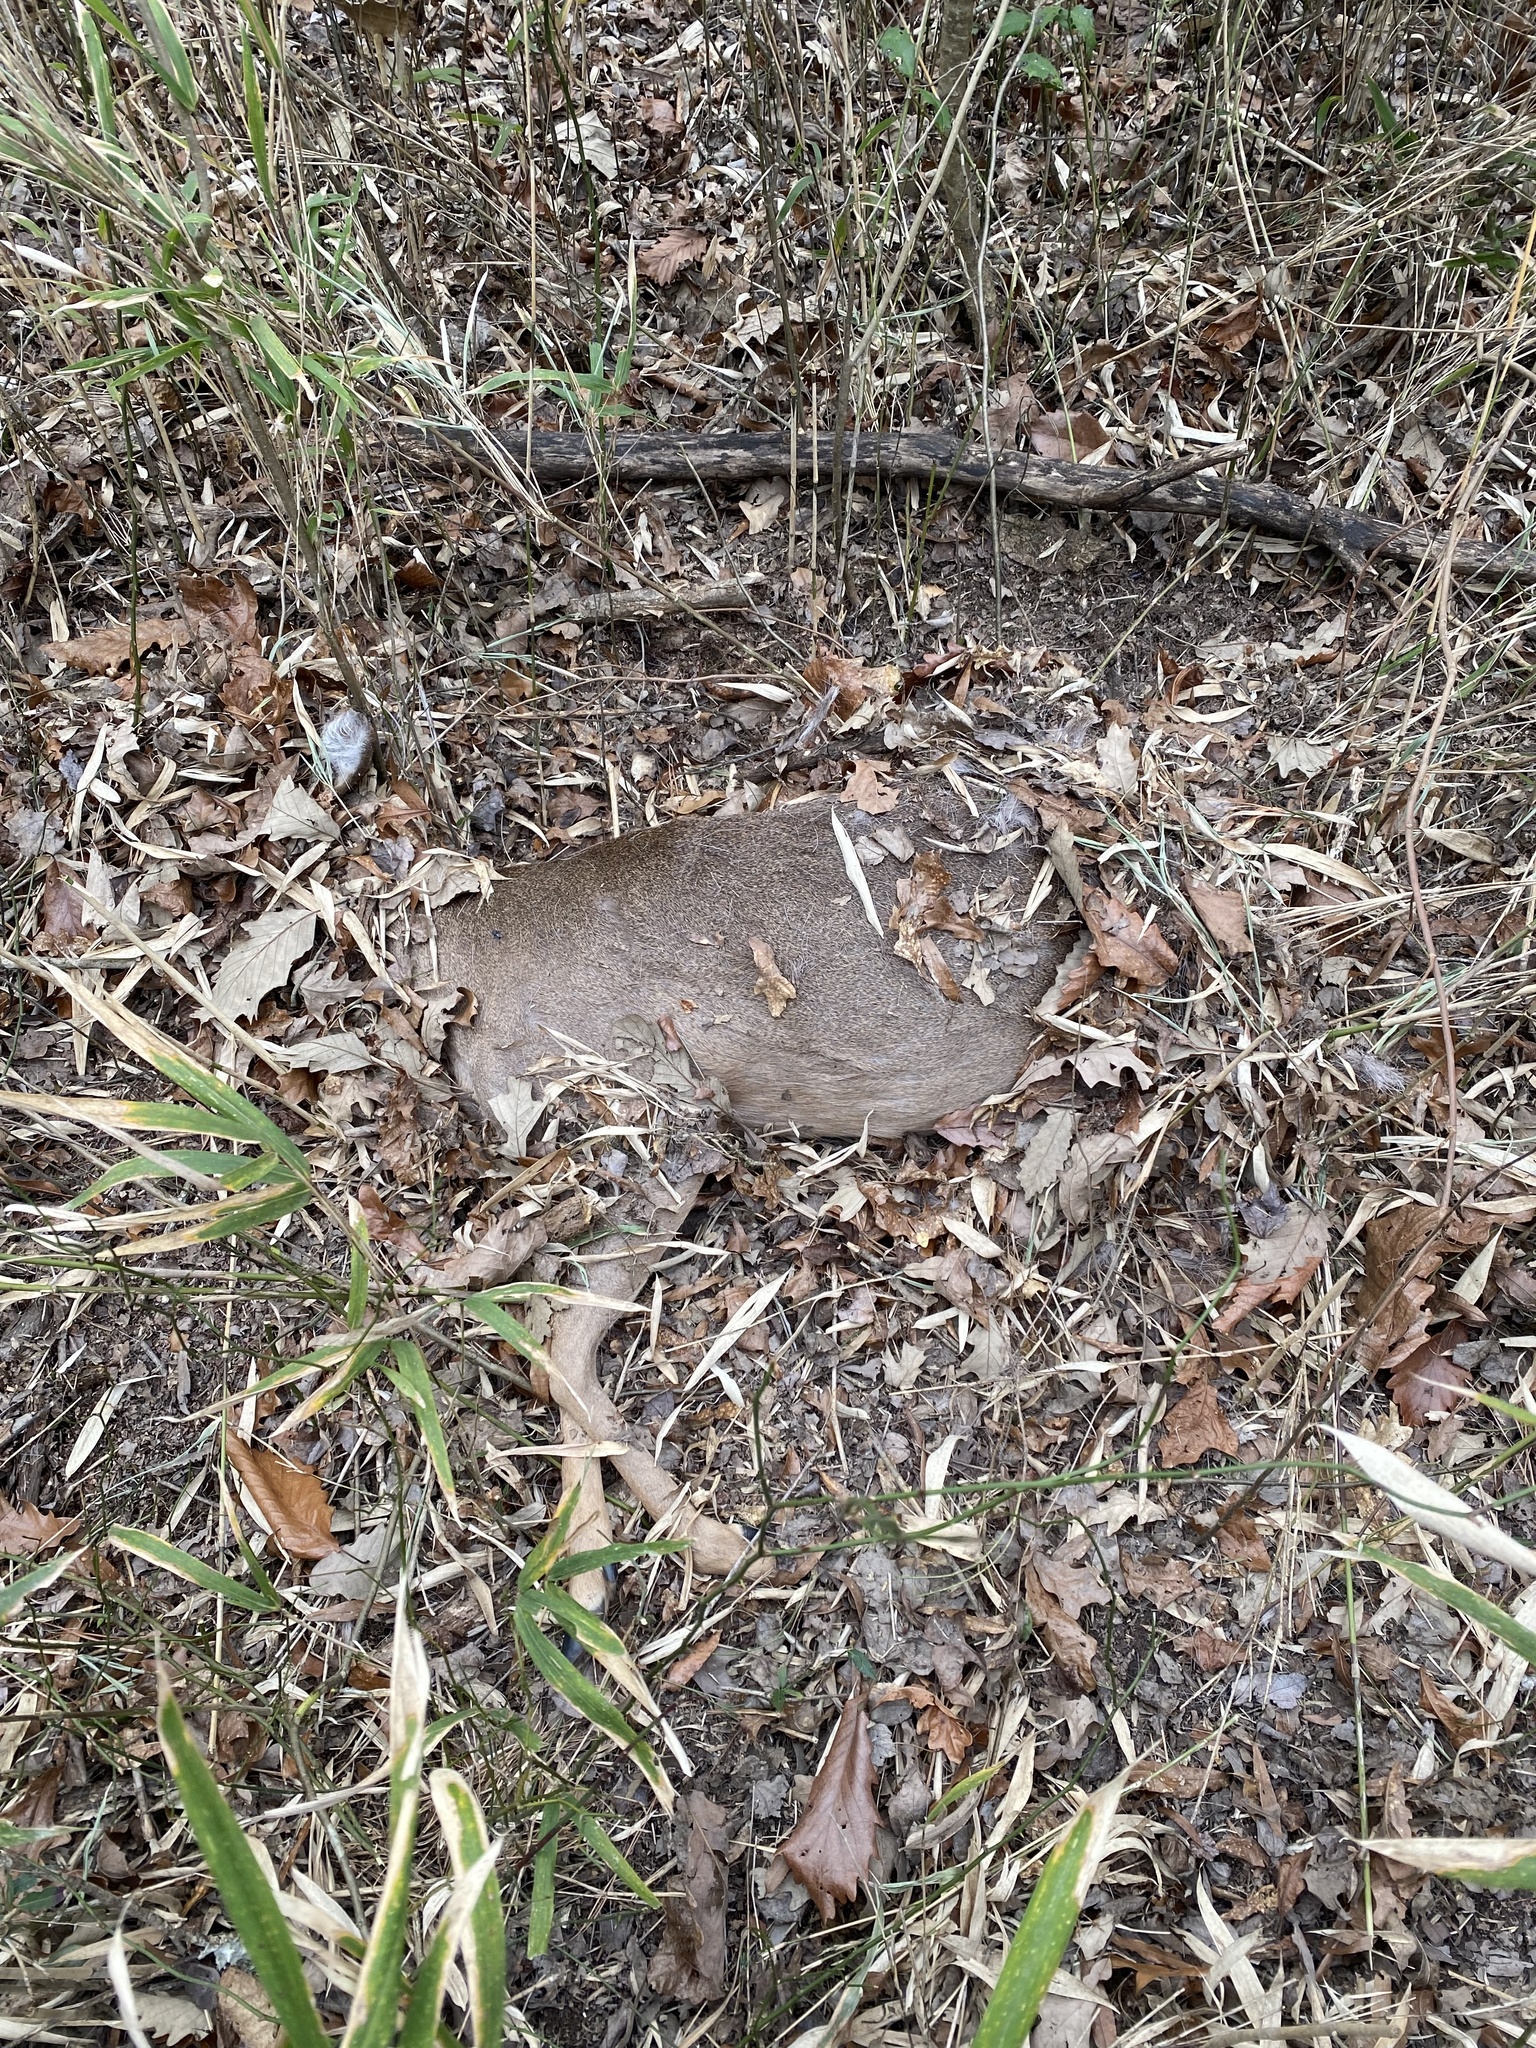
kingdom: Animalia
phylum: Chordata
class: Mammalia
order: Artiodactyla
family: Cervidae
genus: Odocoileus
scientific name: Odocoileus virginianus
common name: White-tailed deer
